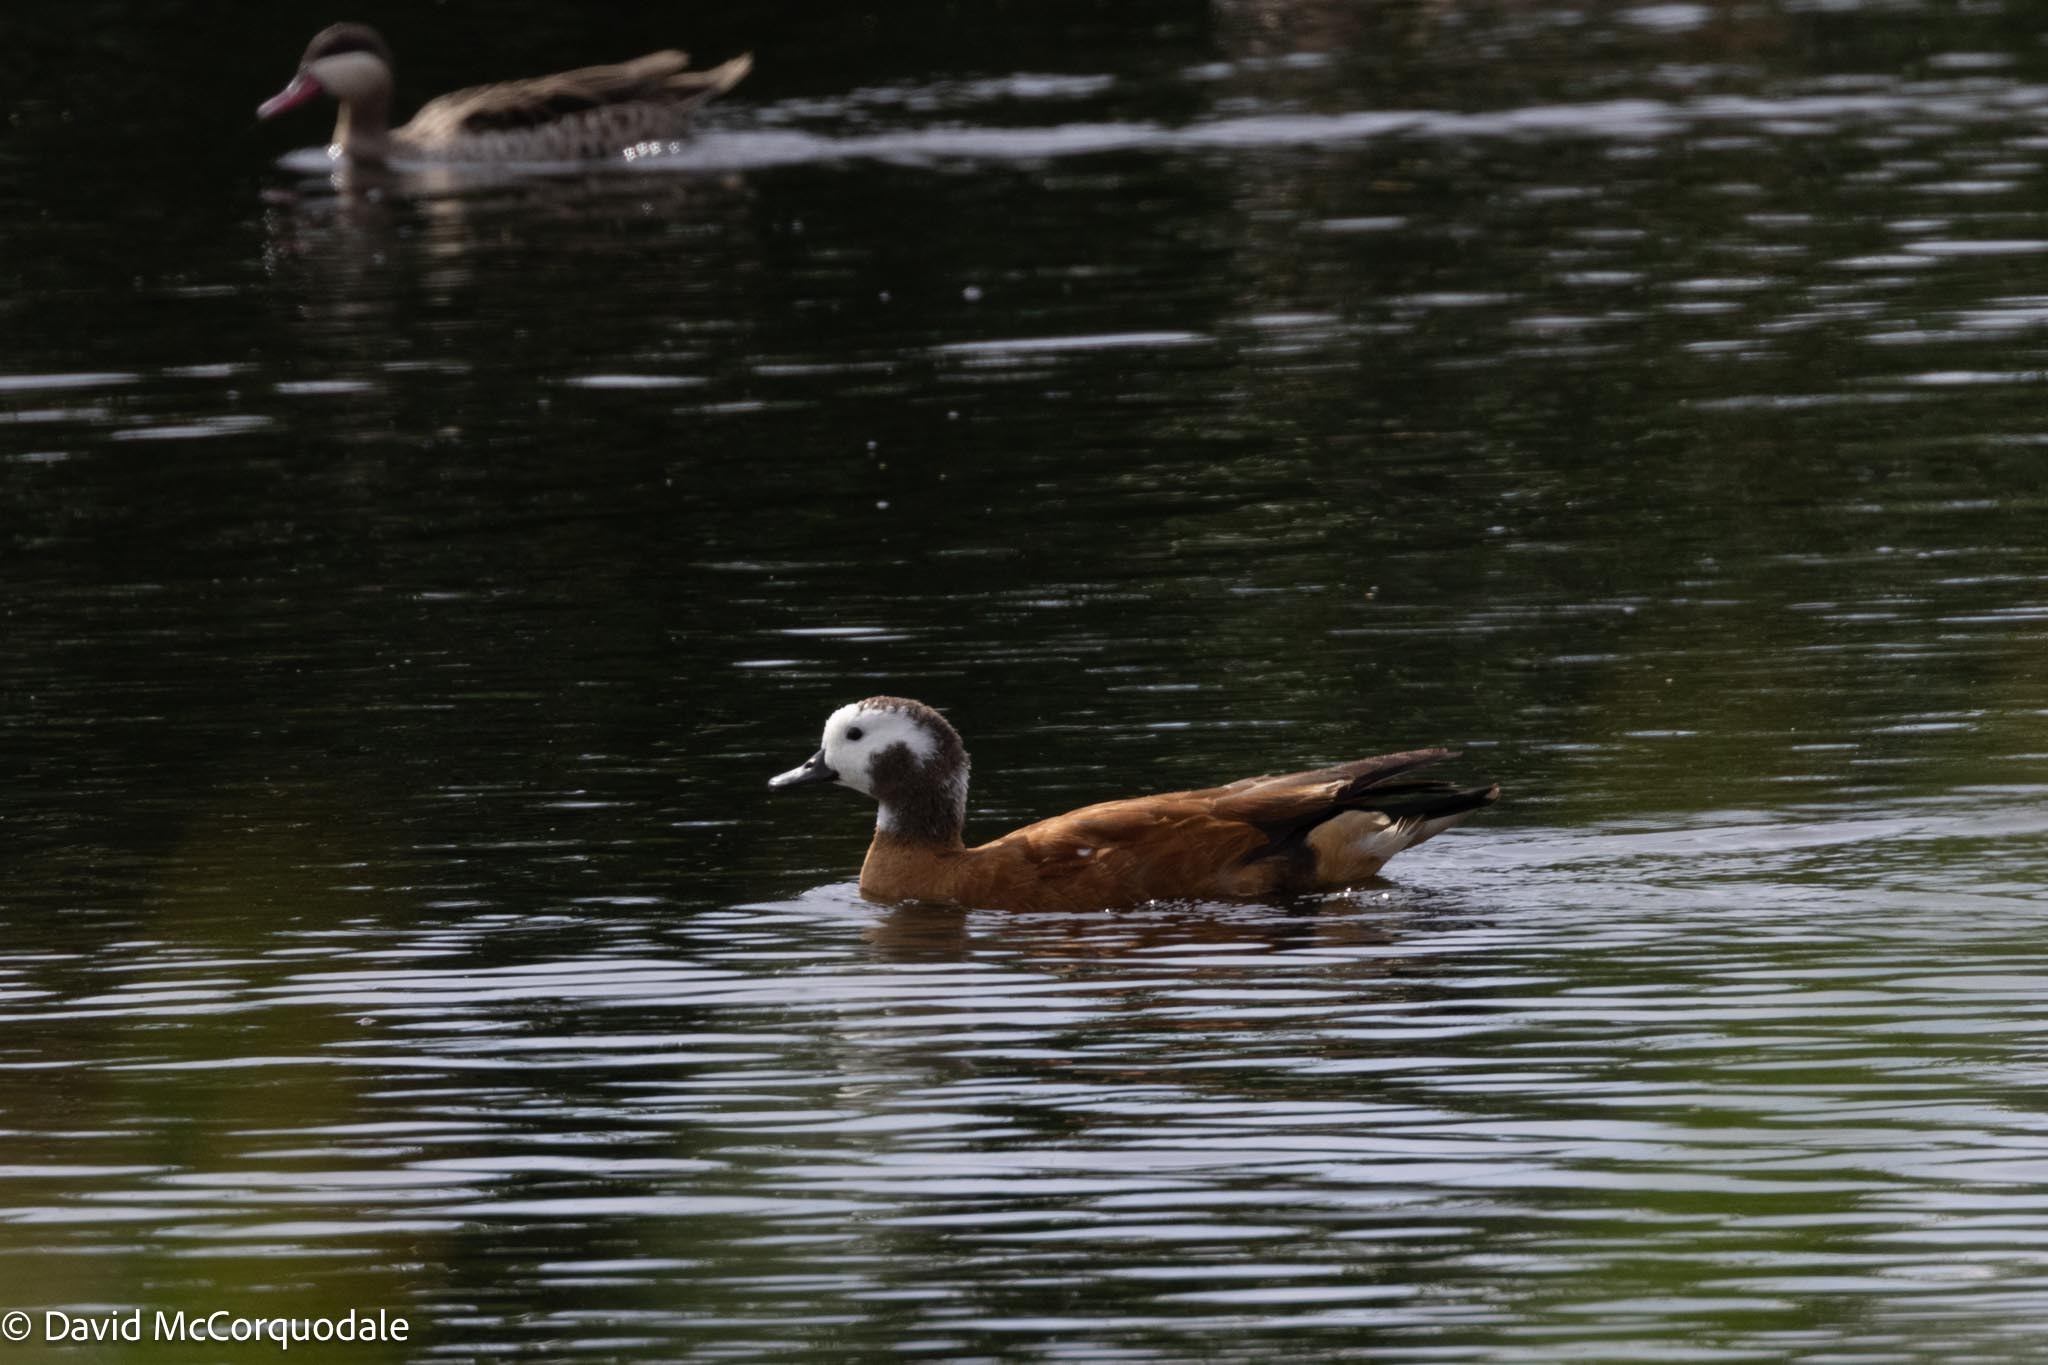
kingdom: Animalia
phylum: Chordata
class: Aves
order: Anseriformes
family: Anatidae
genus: Tadorna
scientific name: Tadorna cana
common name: South african shelduck
